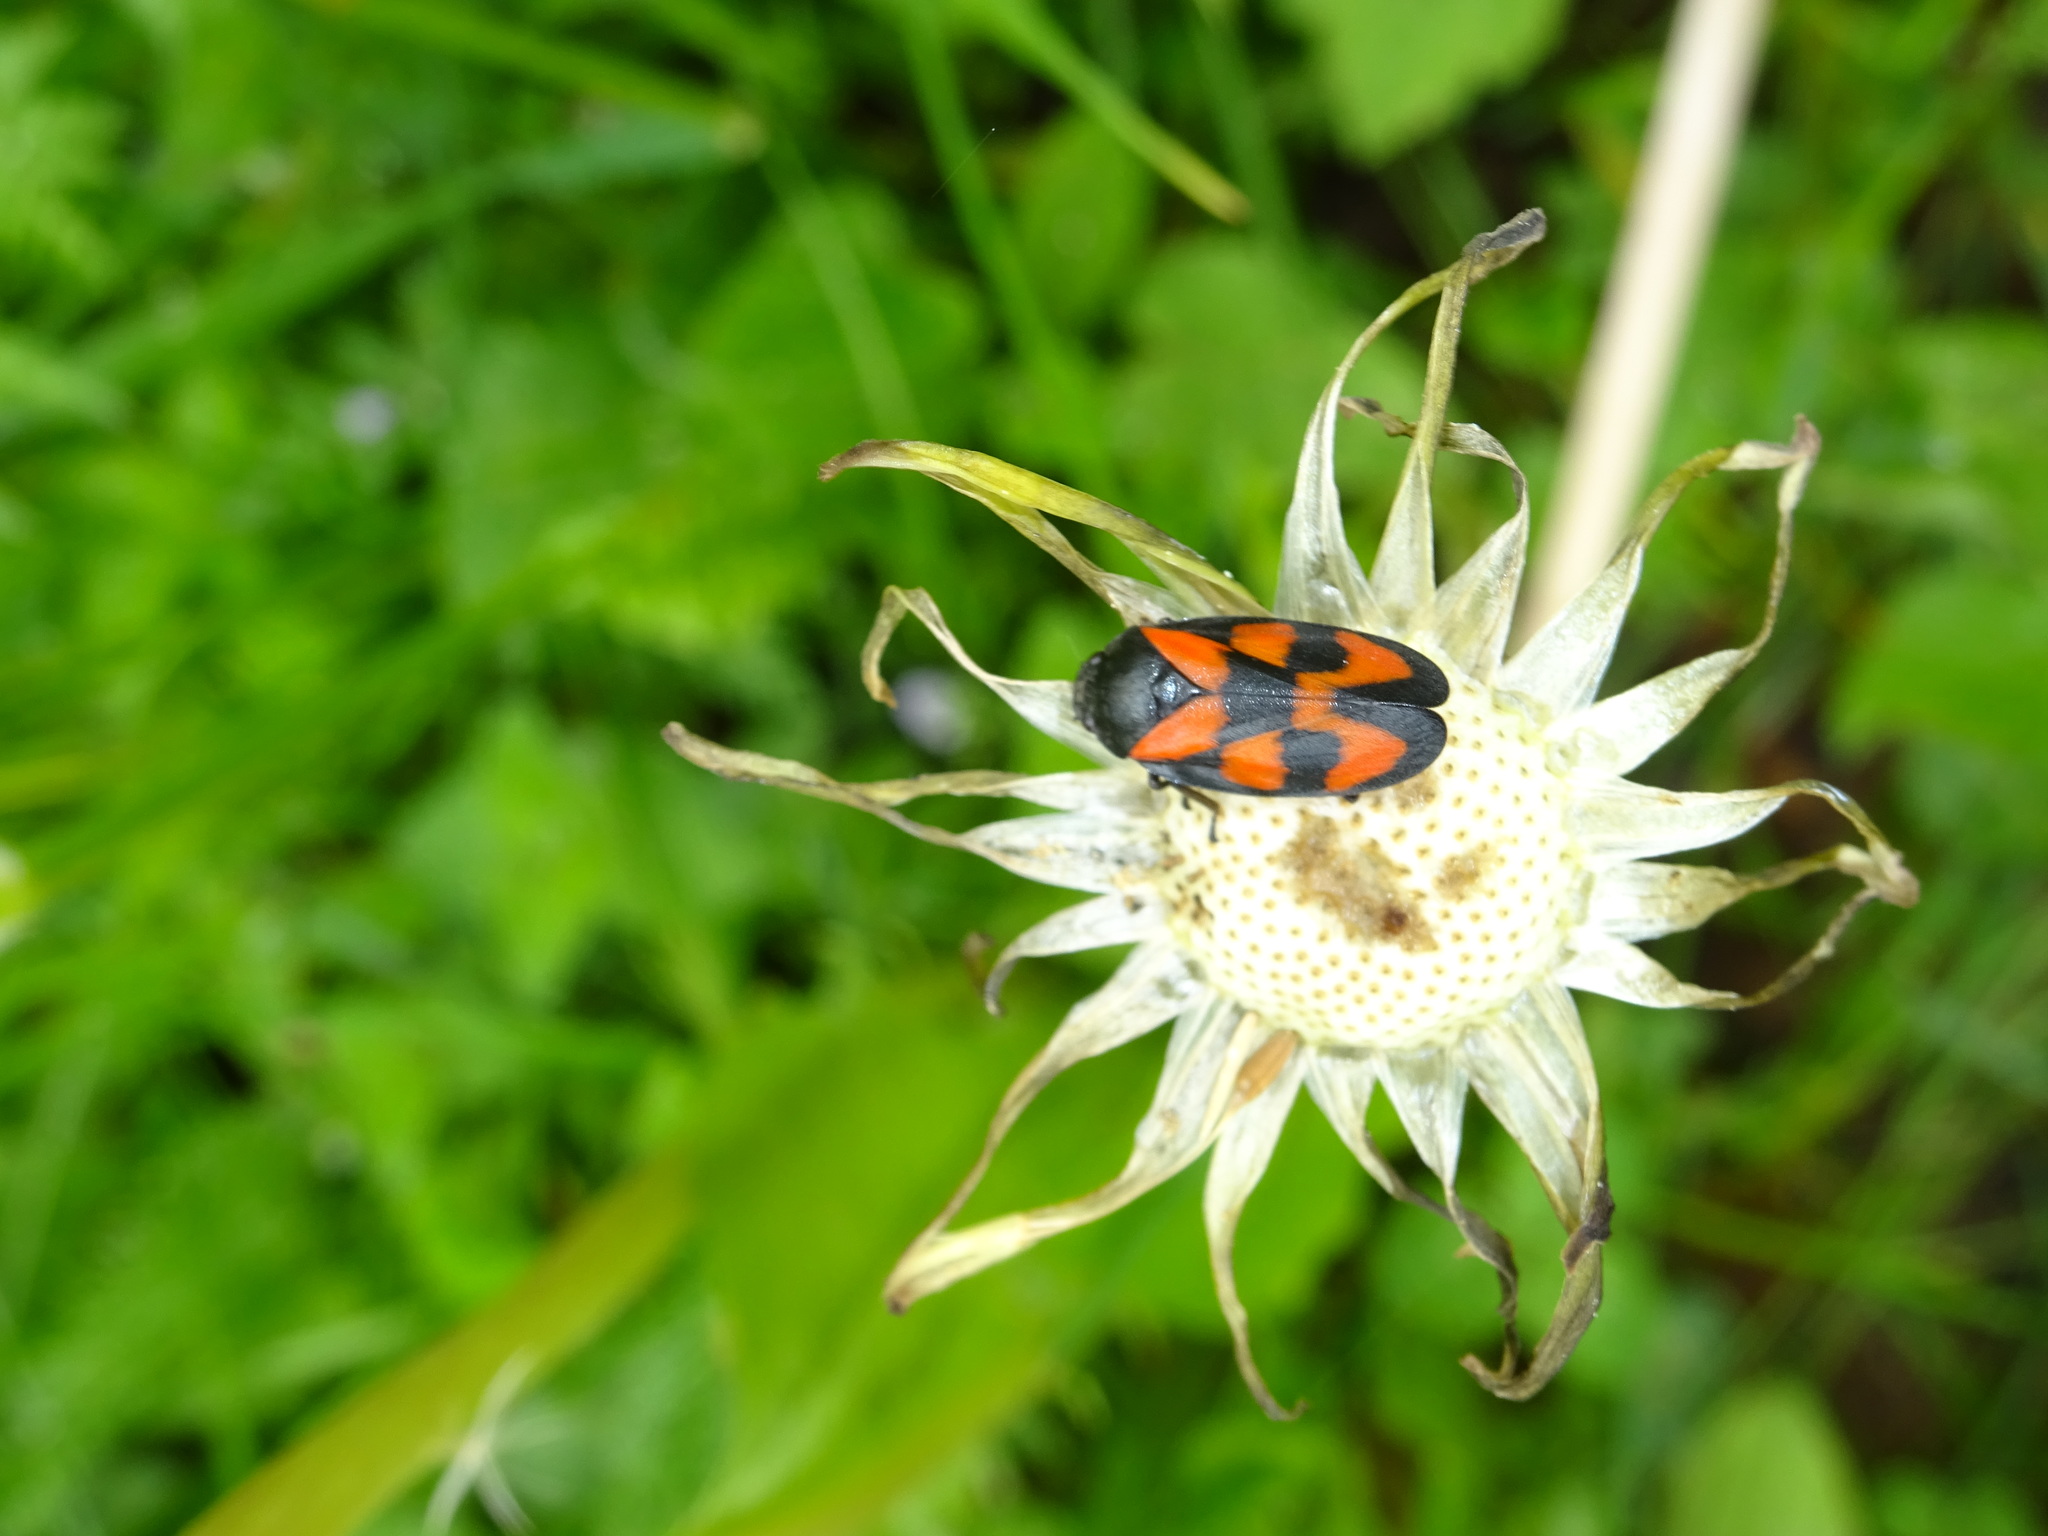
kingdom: Animalia
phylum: Arthropoda
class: Insecta
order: Hemiptera
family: Cercopidae
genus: Cercopis
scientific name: Cercopis vulnerata
